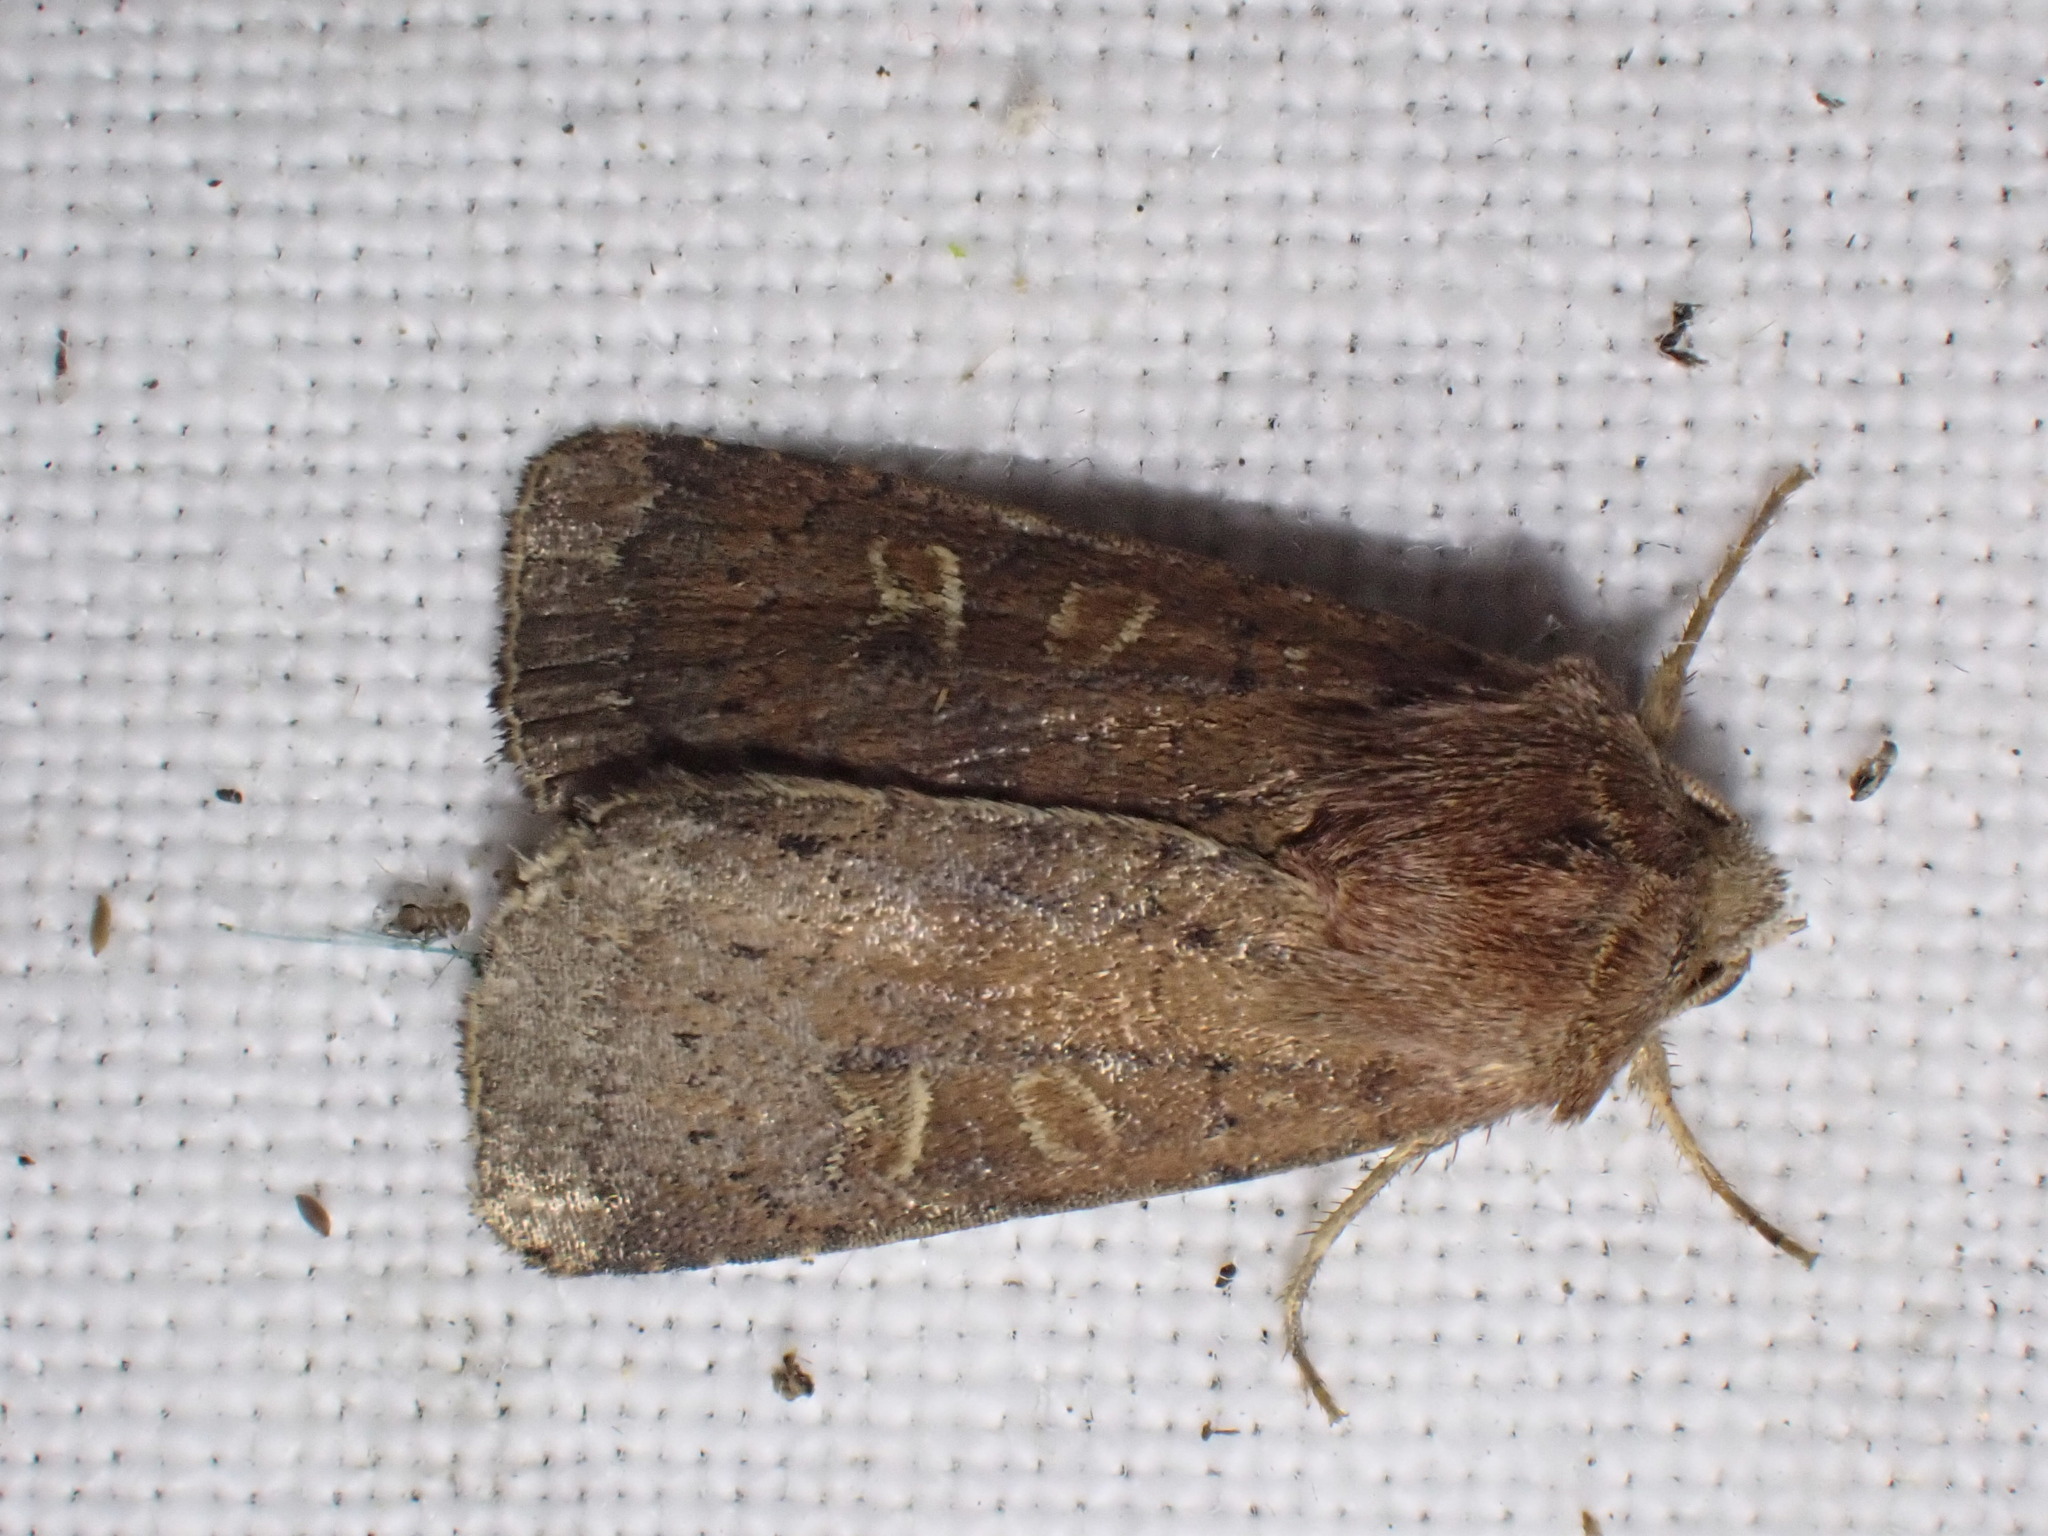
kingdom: Animalia
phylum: Arthropoda
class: Insecta
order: Lepidoptera
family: Noctuidae
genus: Xestia
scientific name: Xestia xanthographa
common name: Square-spot rustic
